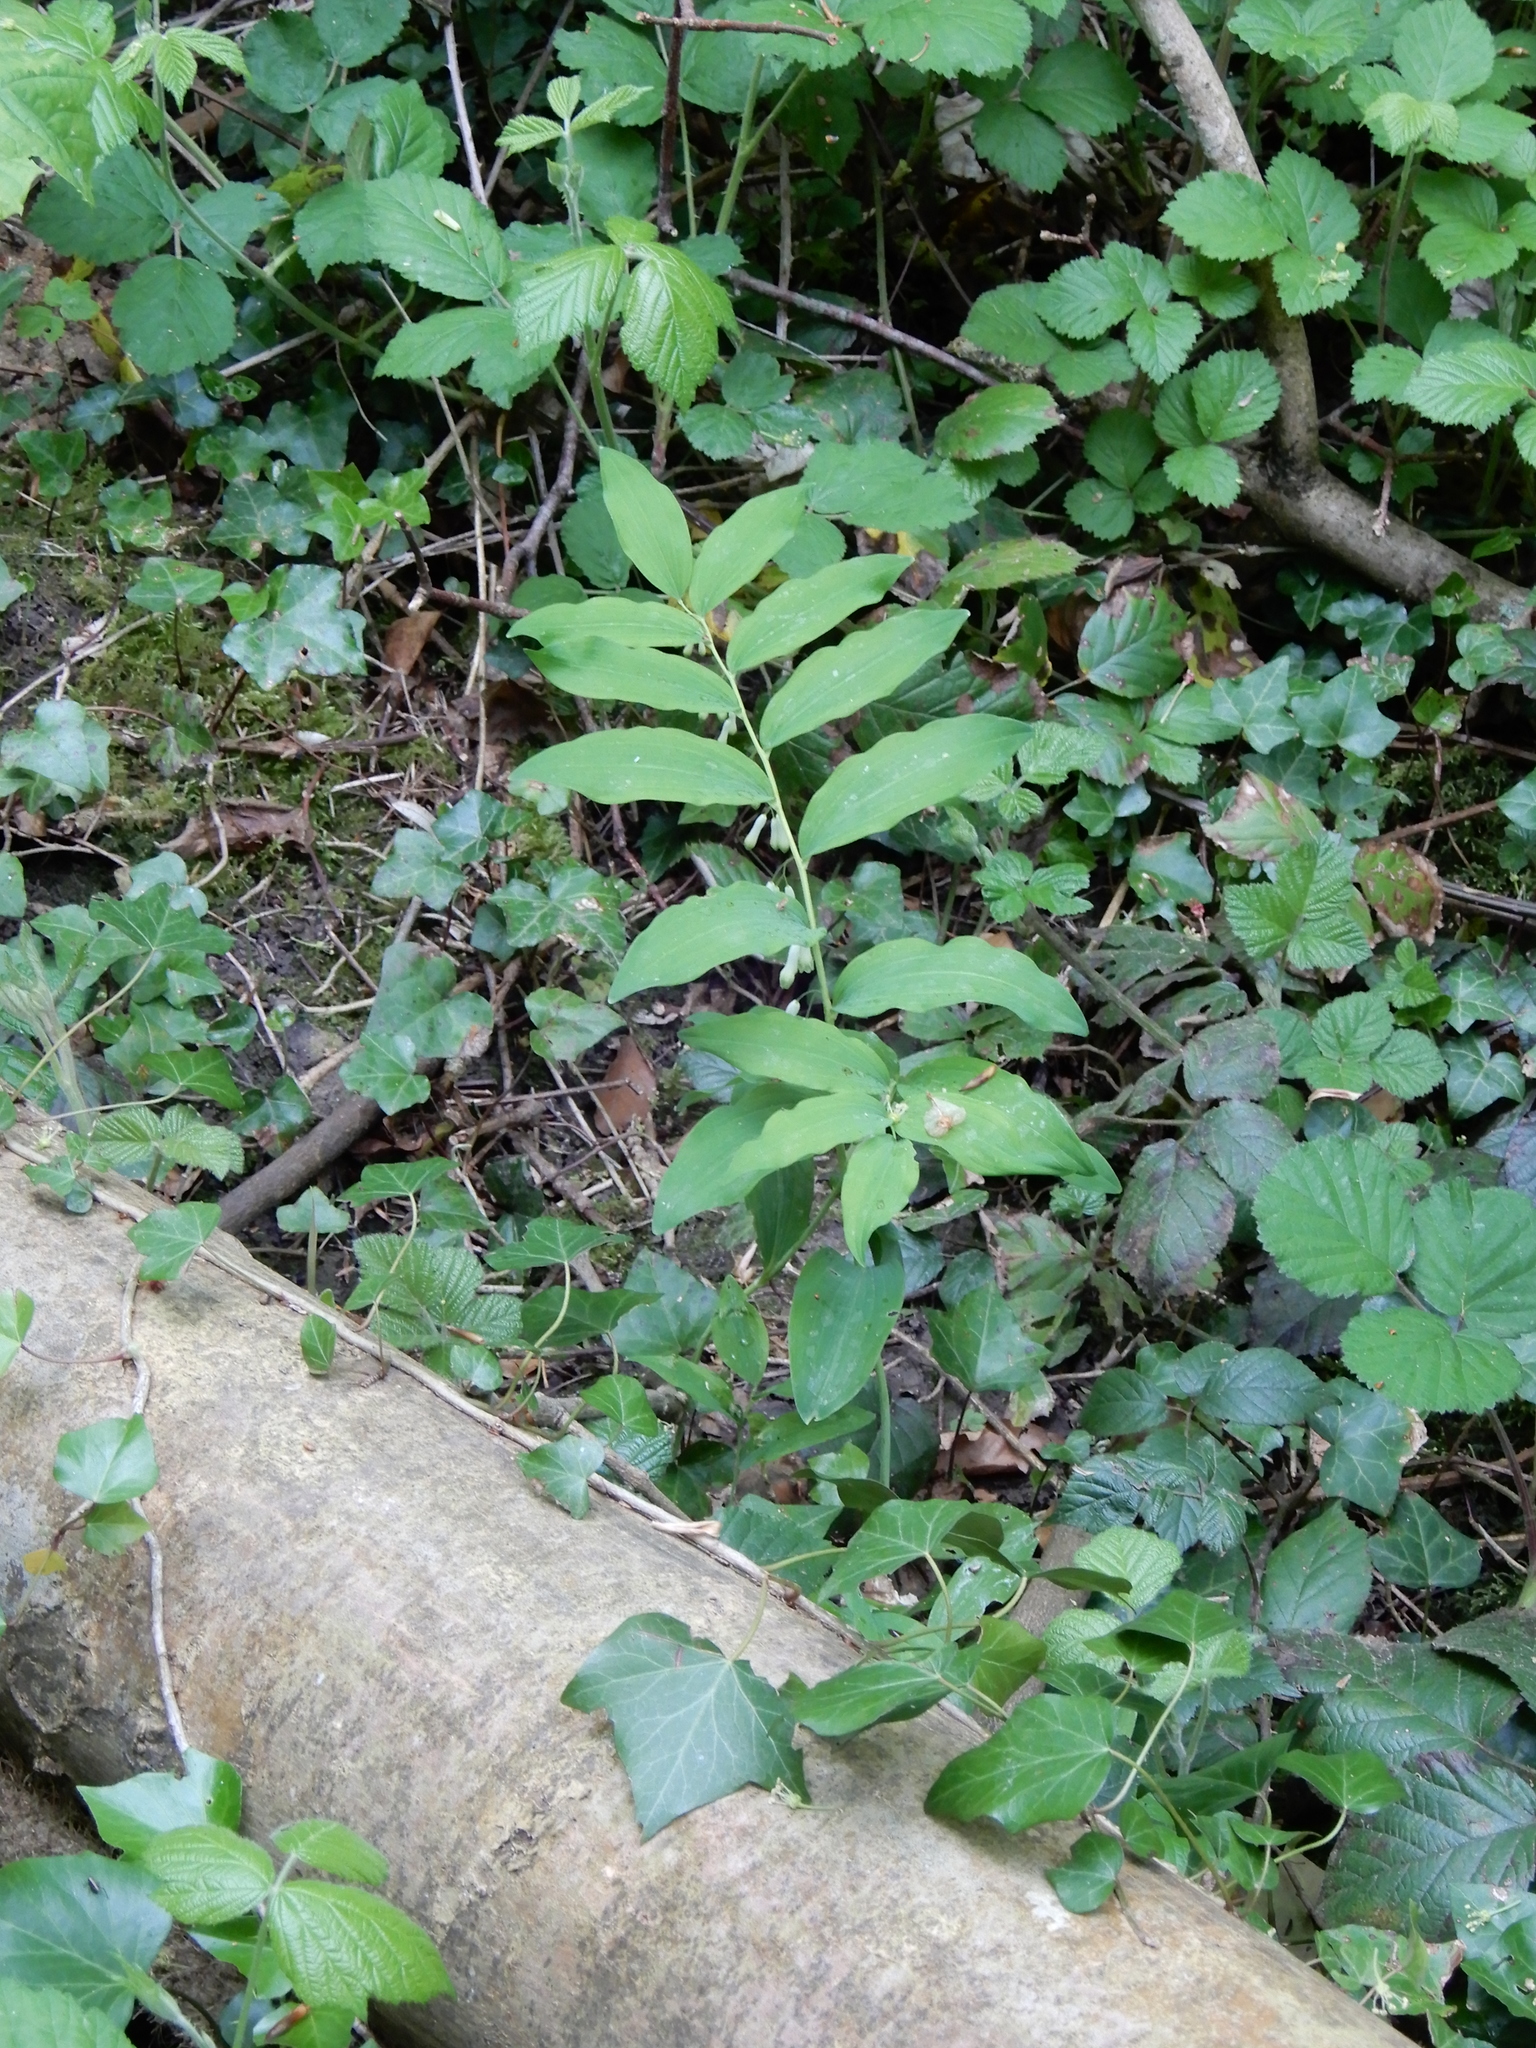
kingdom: Plantae
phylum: Tracheophyta
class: Liliopsida
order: Asparagales
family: Asparagaceae
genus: Polygonatum
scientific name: Polygonatum multiflorum
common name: Solomon's-seal
